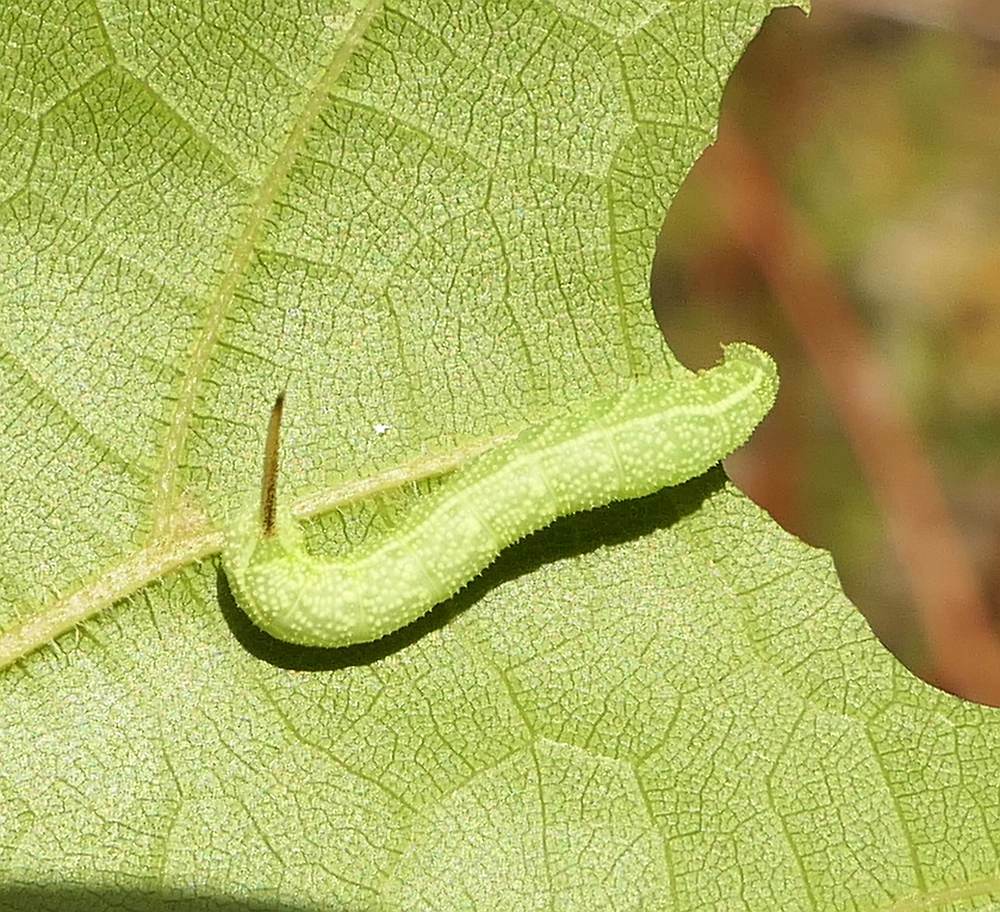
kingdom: Animalia
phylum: Arthropoda
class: Insecta
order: Lepidoptera
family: Sphingidae
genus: Darapsa
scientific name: Darapsa myron
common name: Hog sphinx
